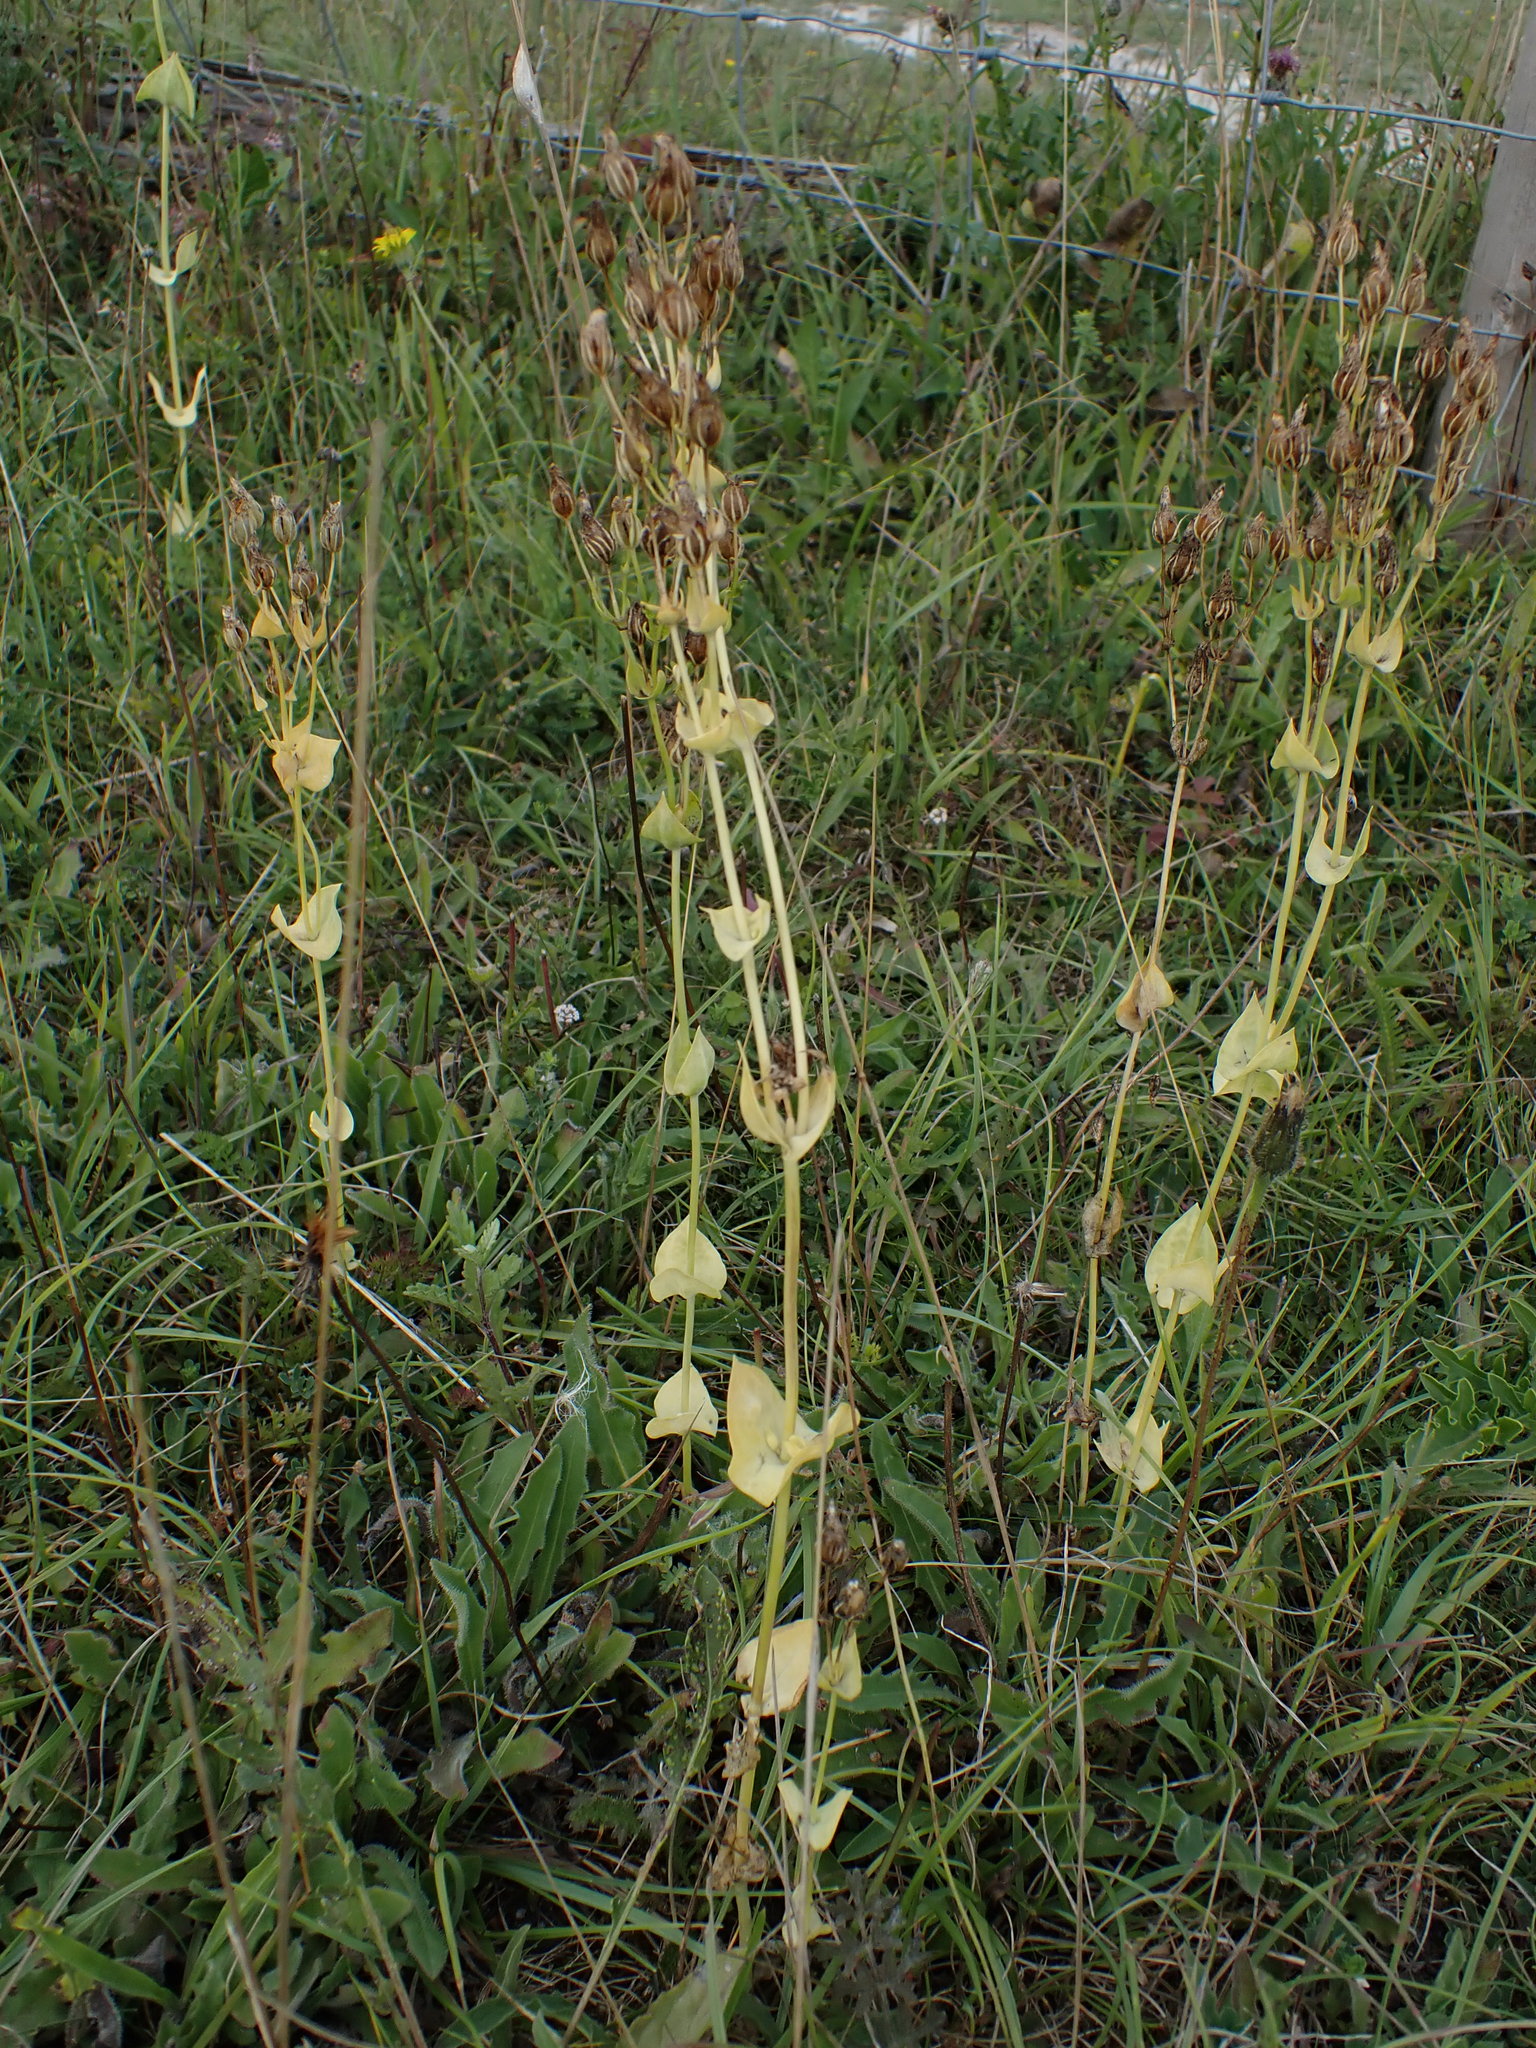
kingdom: Plantae
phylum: Tracheophyta
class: Magnoliopsida
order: Gentianales
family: Gentianaceae
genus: Blackstonia
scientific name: Blackstonia perfoliata
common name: Yellow-wort
